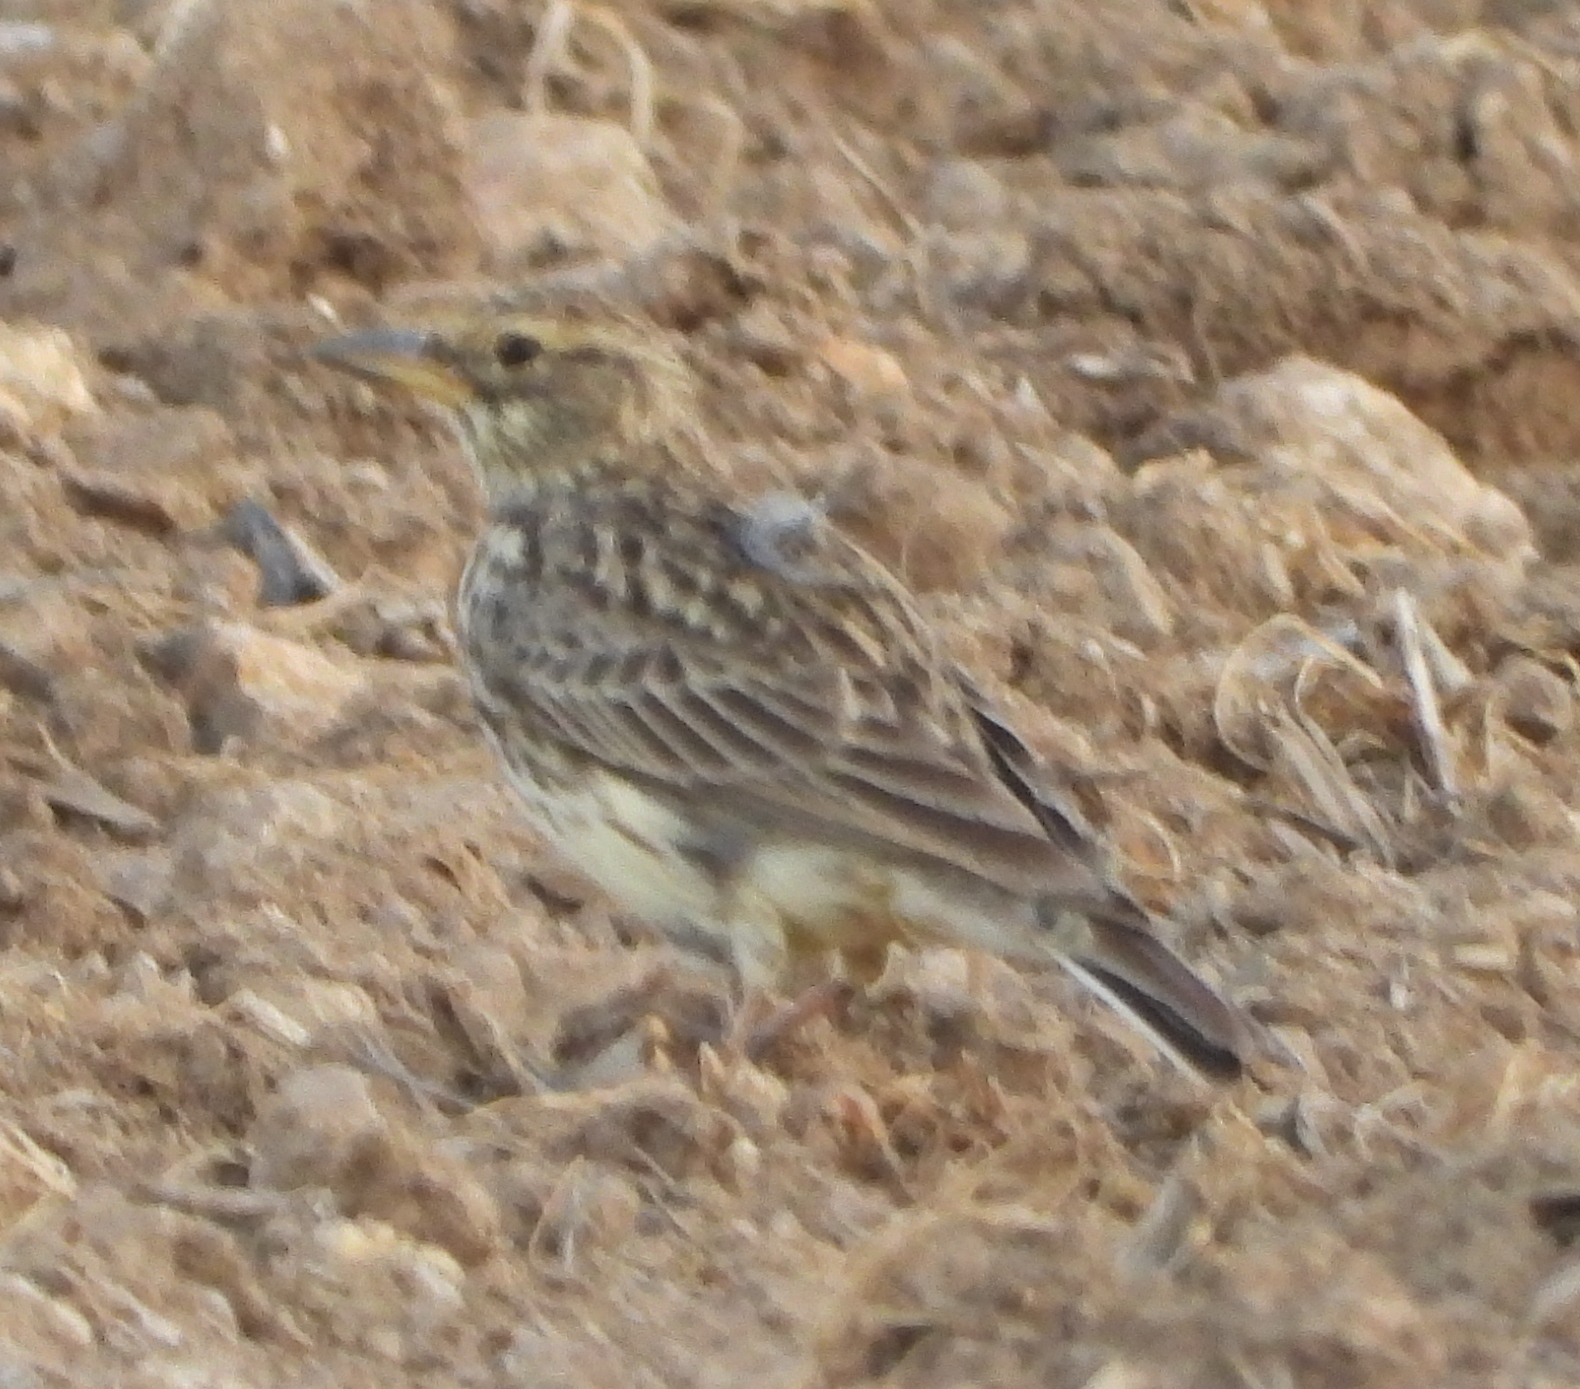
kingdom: Animalia
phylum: Chordata
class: Aves
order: Passeriformes
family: Alaudidae
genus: Galerida
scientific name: Galerida magnirostris
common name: Large-billed lark
